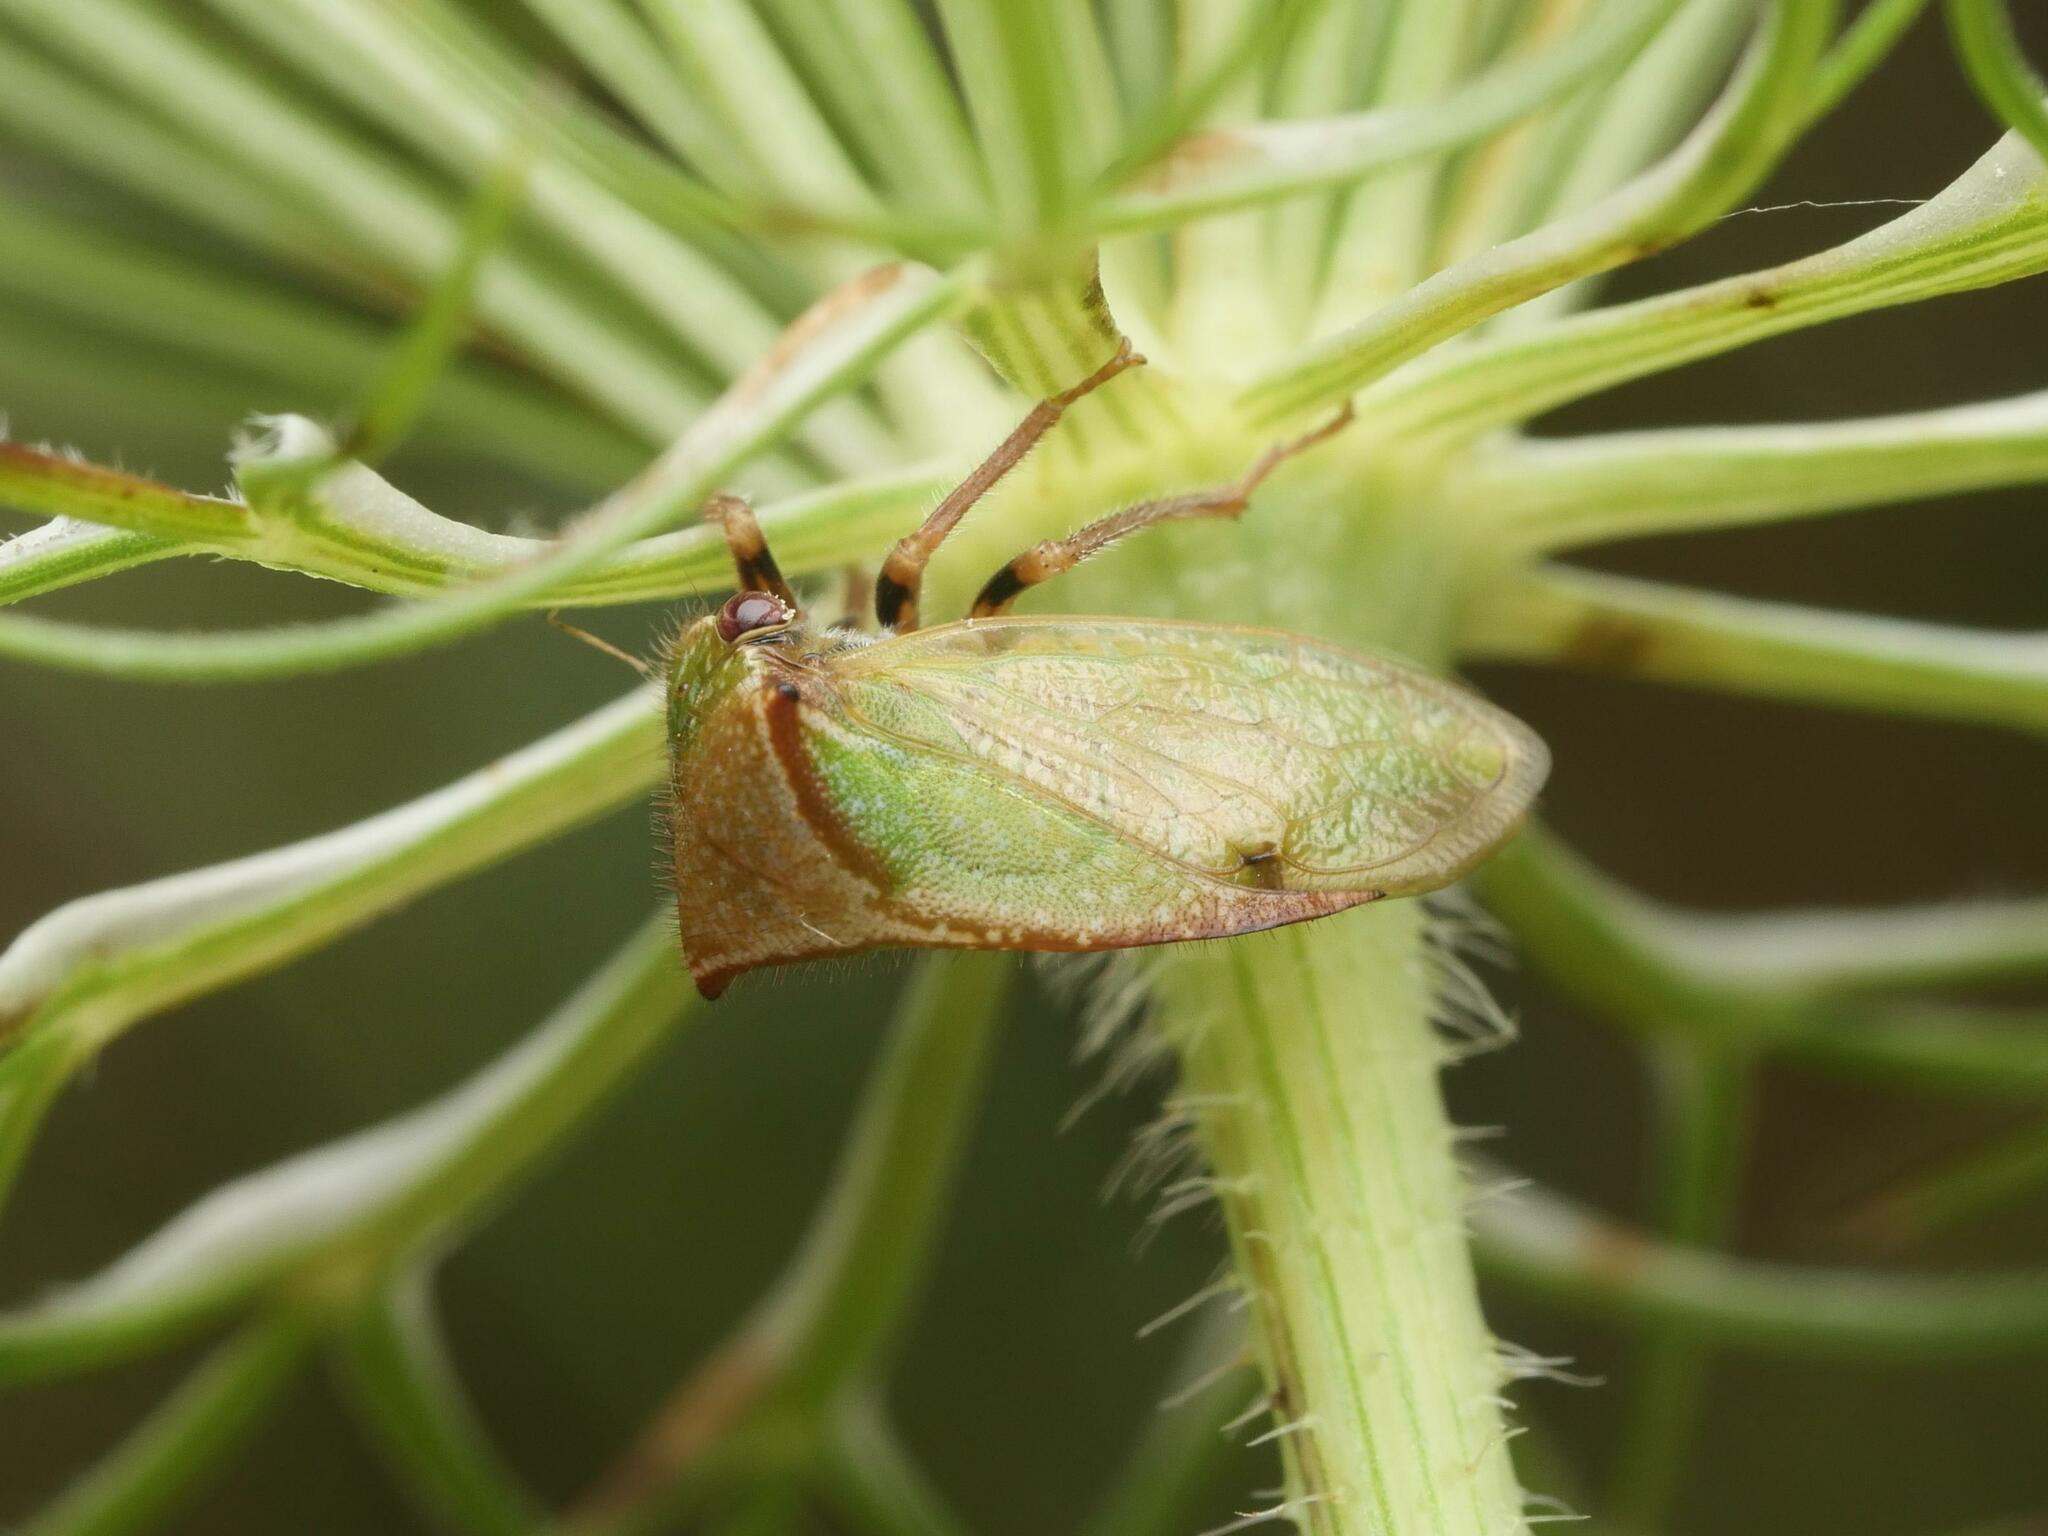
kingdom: Animalia
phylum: Arthropoda
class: Insecta
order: Hemiptera
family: Membracidae
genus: Stictocephala
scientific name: Stictocephala basalis
